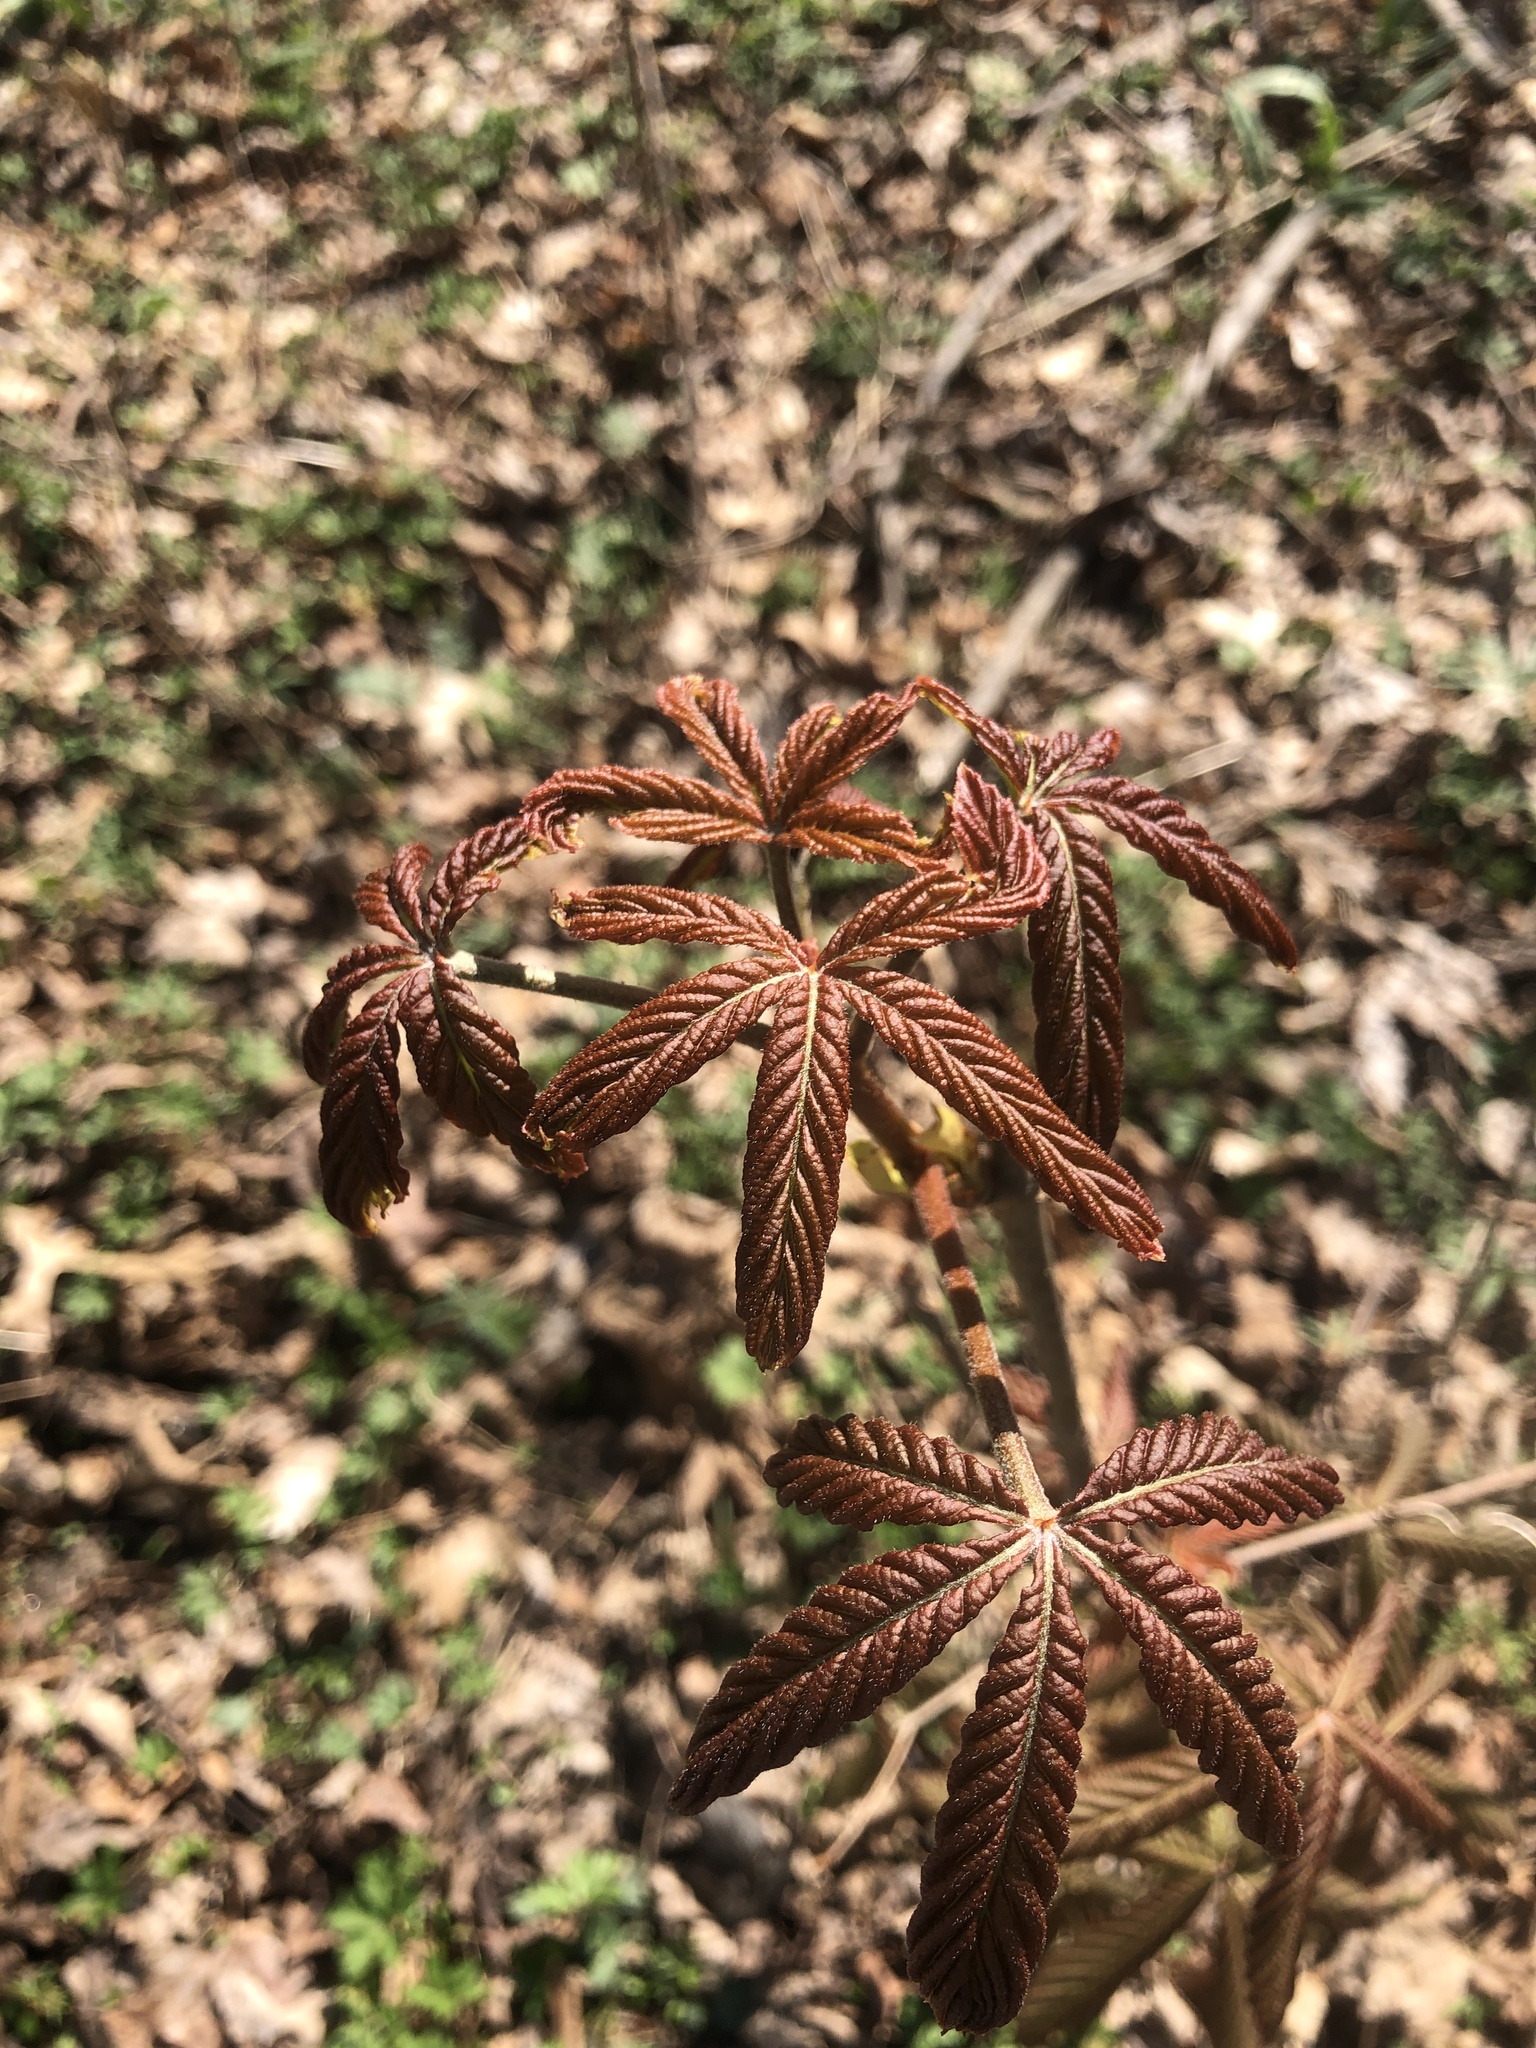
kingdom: Plantae
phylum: Tracheophyta
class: Magnoliopsida
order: Sapindales
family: Sapindaceae
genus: Aesculus
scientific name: Aesculus glabra
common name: Ohio buckeye
